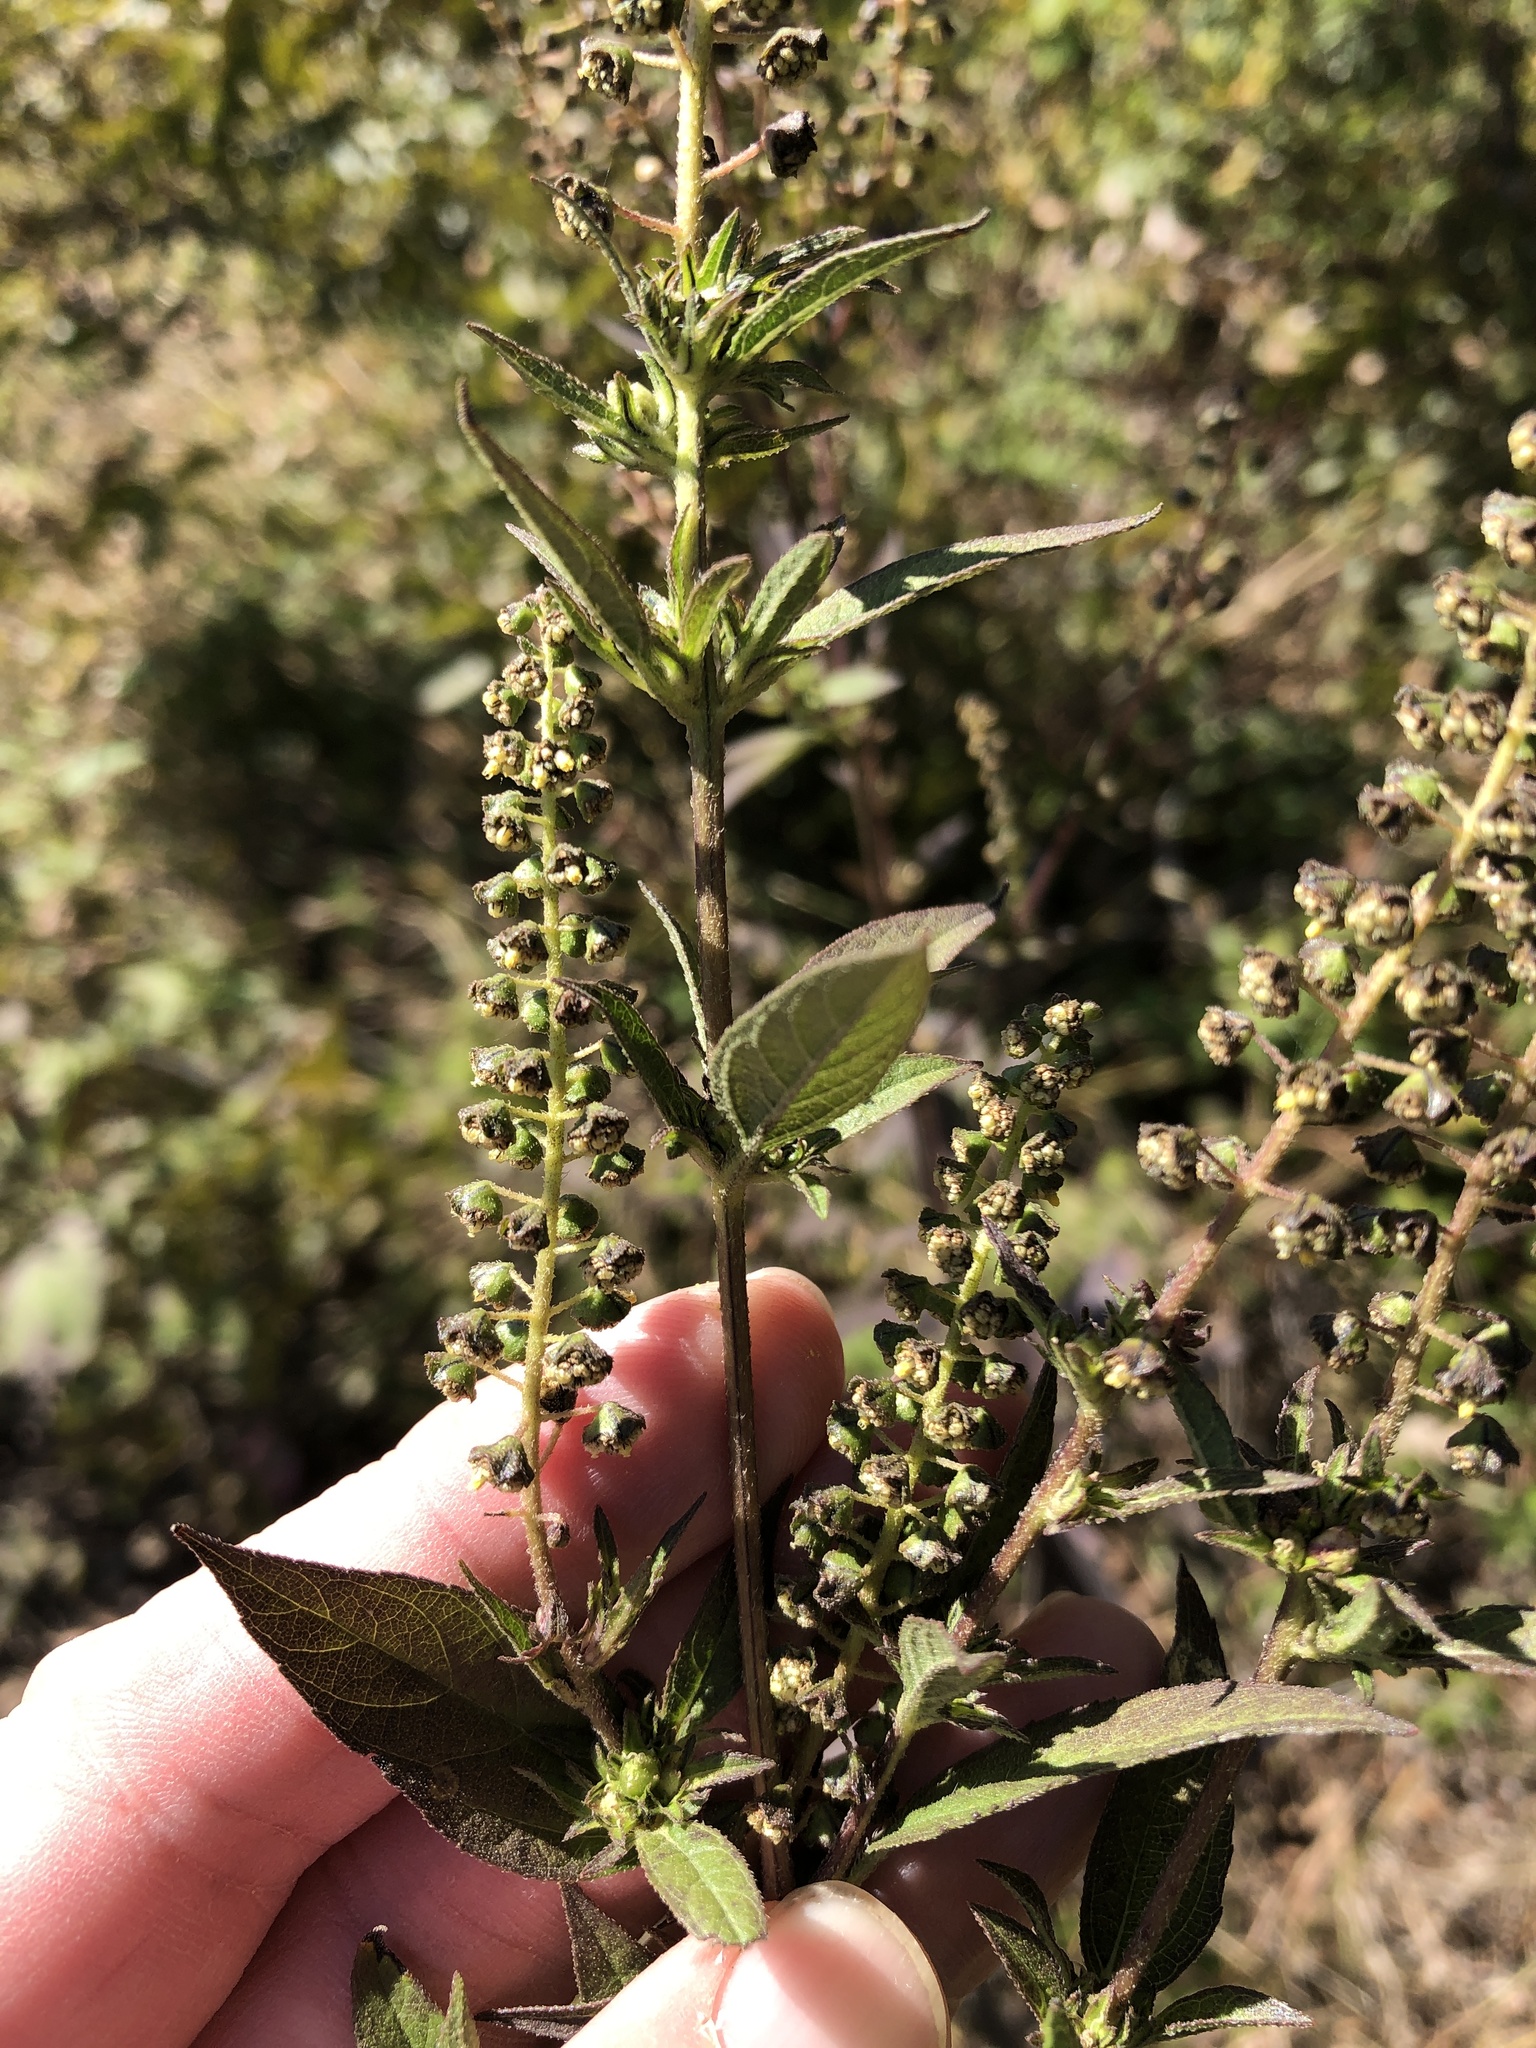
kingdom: Plantae
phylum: Tracheophyta
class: Magnoliopsida
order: Asterales
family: Asteraceae
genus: Ambrosia
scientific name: Ambrosia trifida
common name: Giant ragweed
